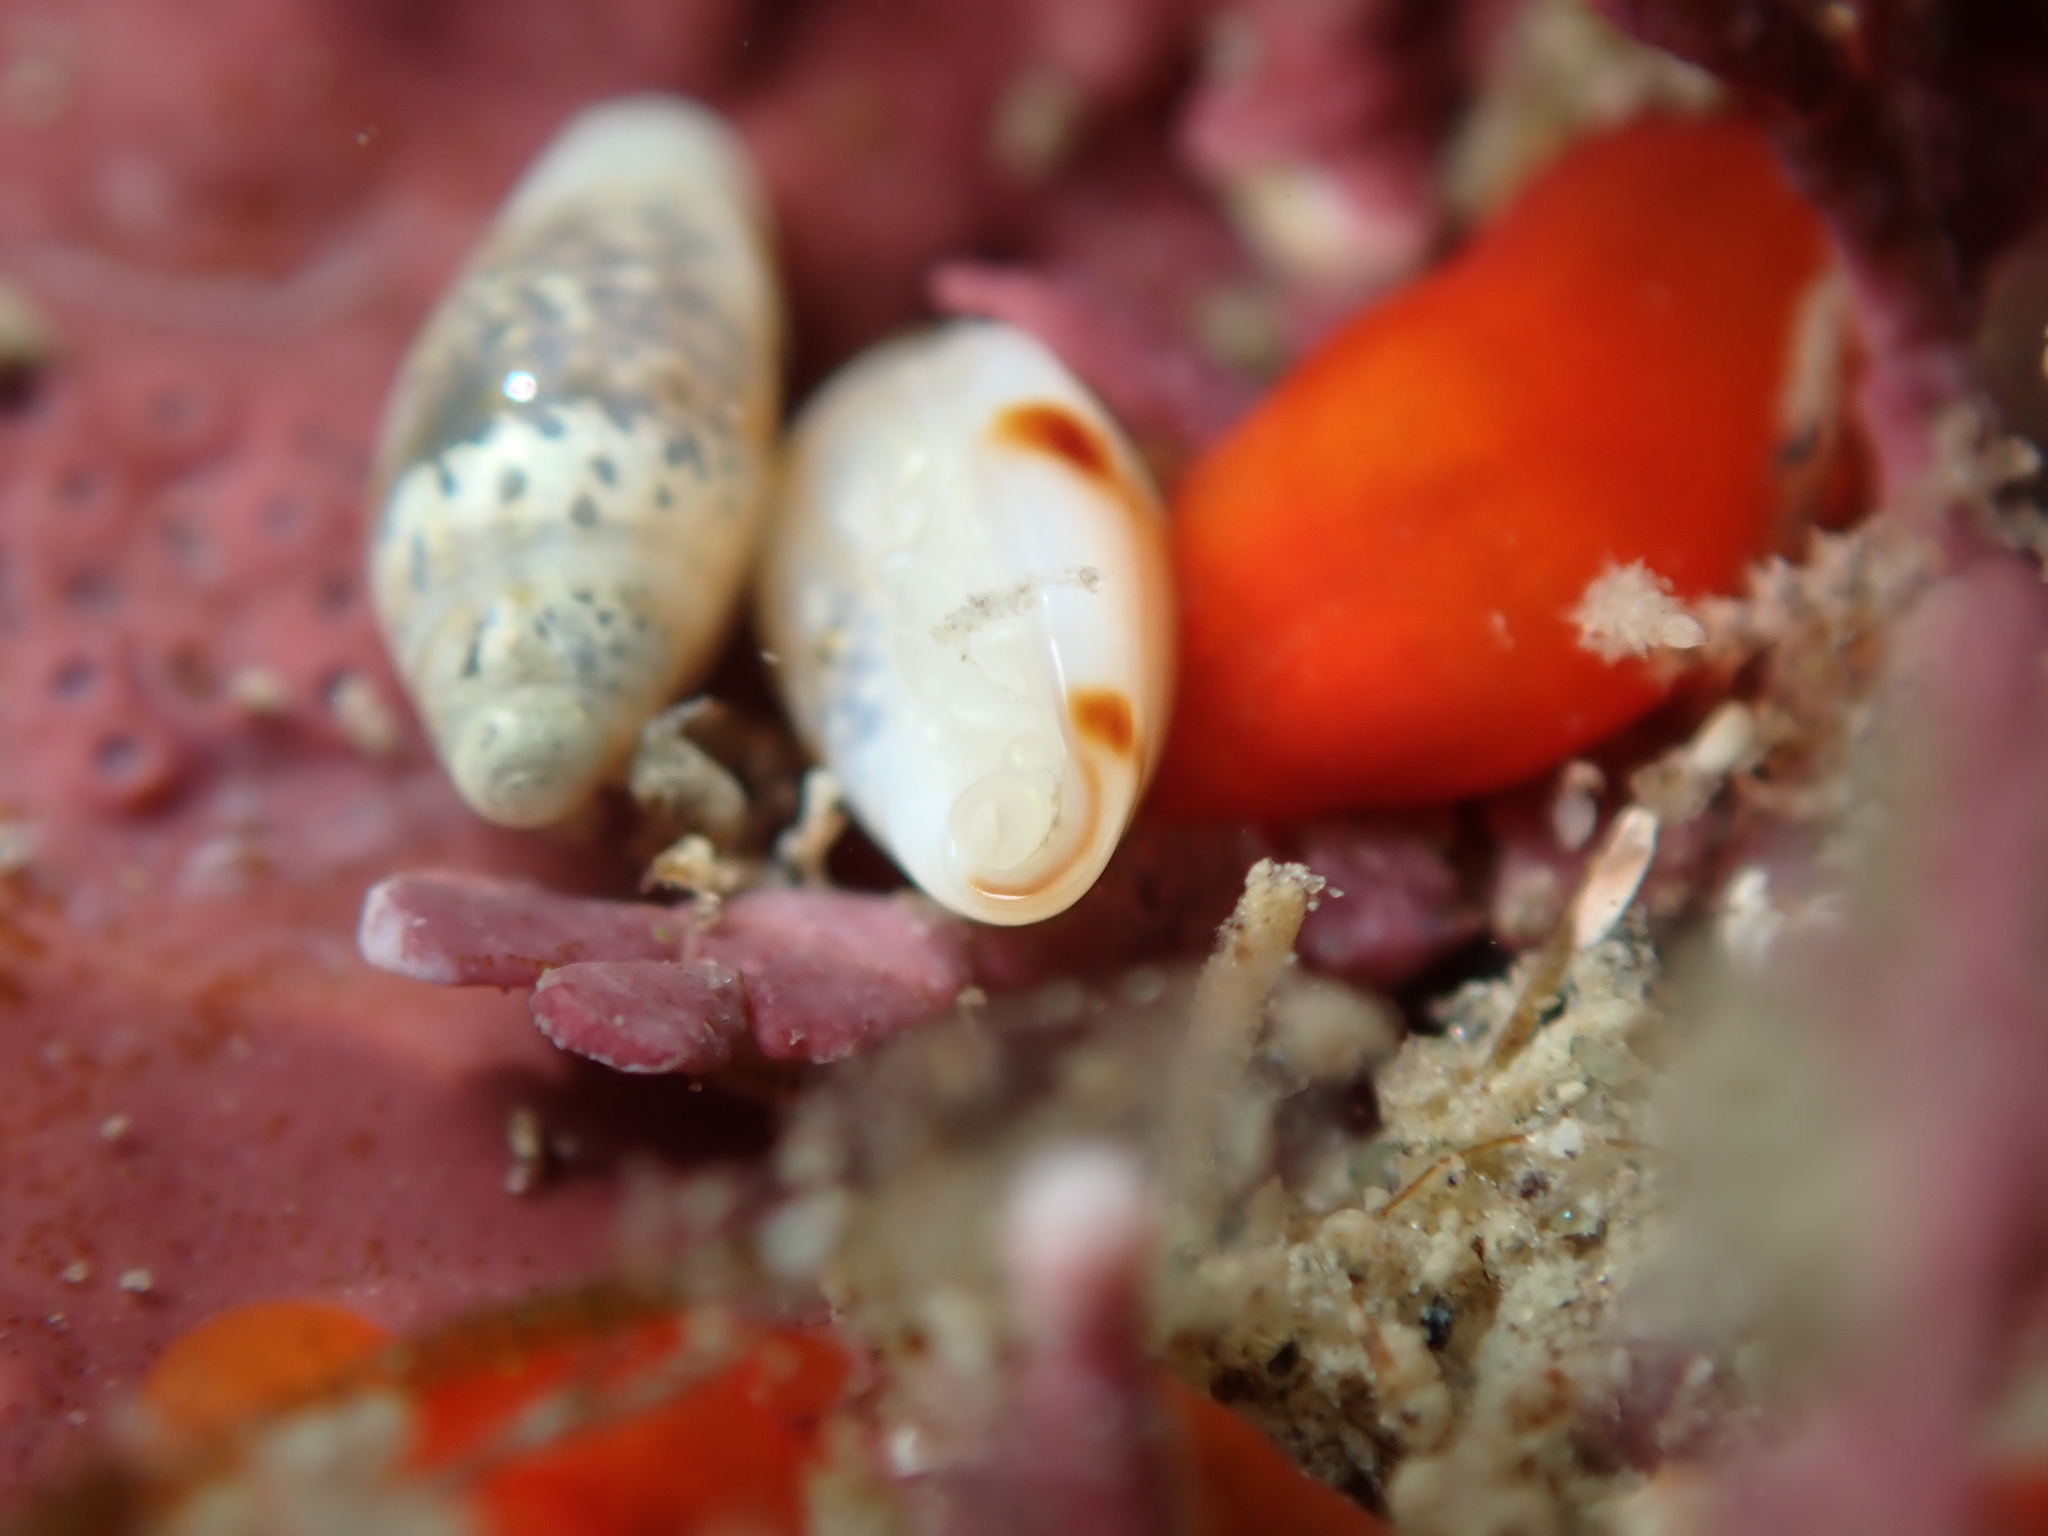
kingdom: Animalia
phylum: Mollusca
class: Gastropoda
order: Neogastropoda
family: Marginellidae
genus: Dentimargo
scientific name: Dentimargo cairoma
